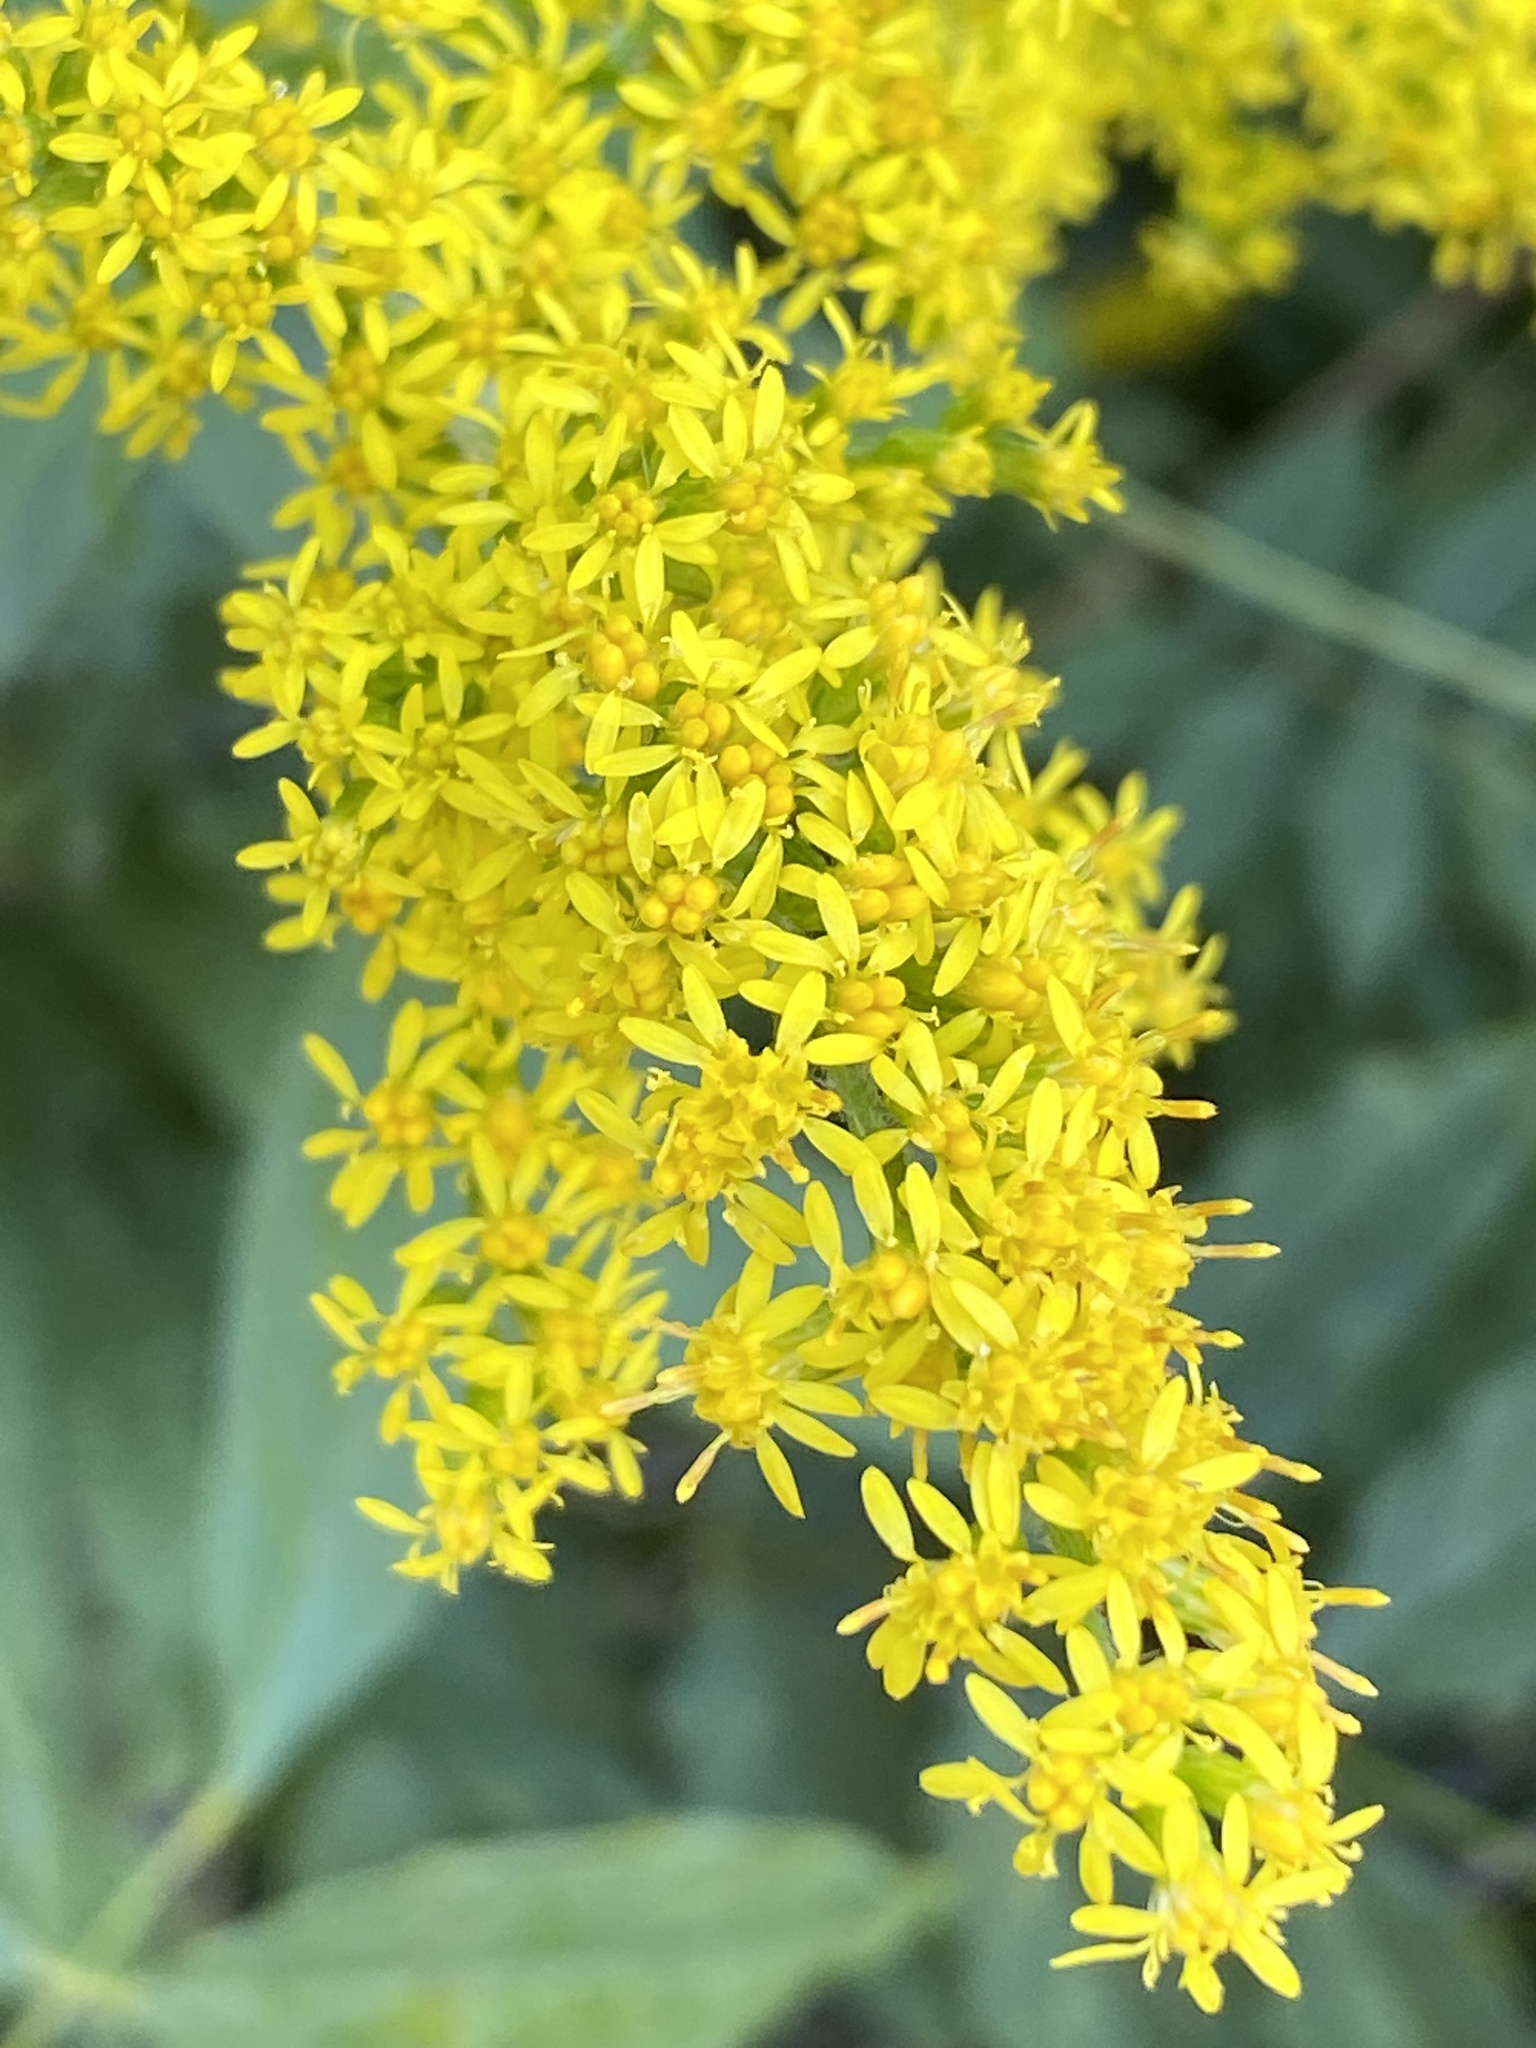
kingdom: Plantae
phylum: Tracheophyta
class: Magnoliopsida
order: Asterales
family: Asteraceae
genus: Solidago
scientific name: Solidago rugosa
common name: Rough-stemmed goldenrod
